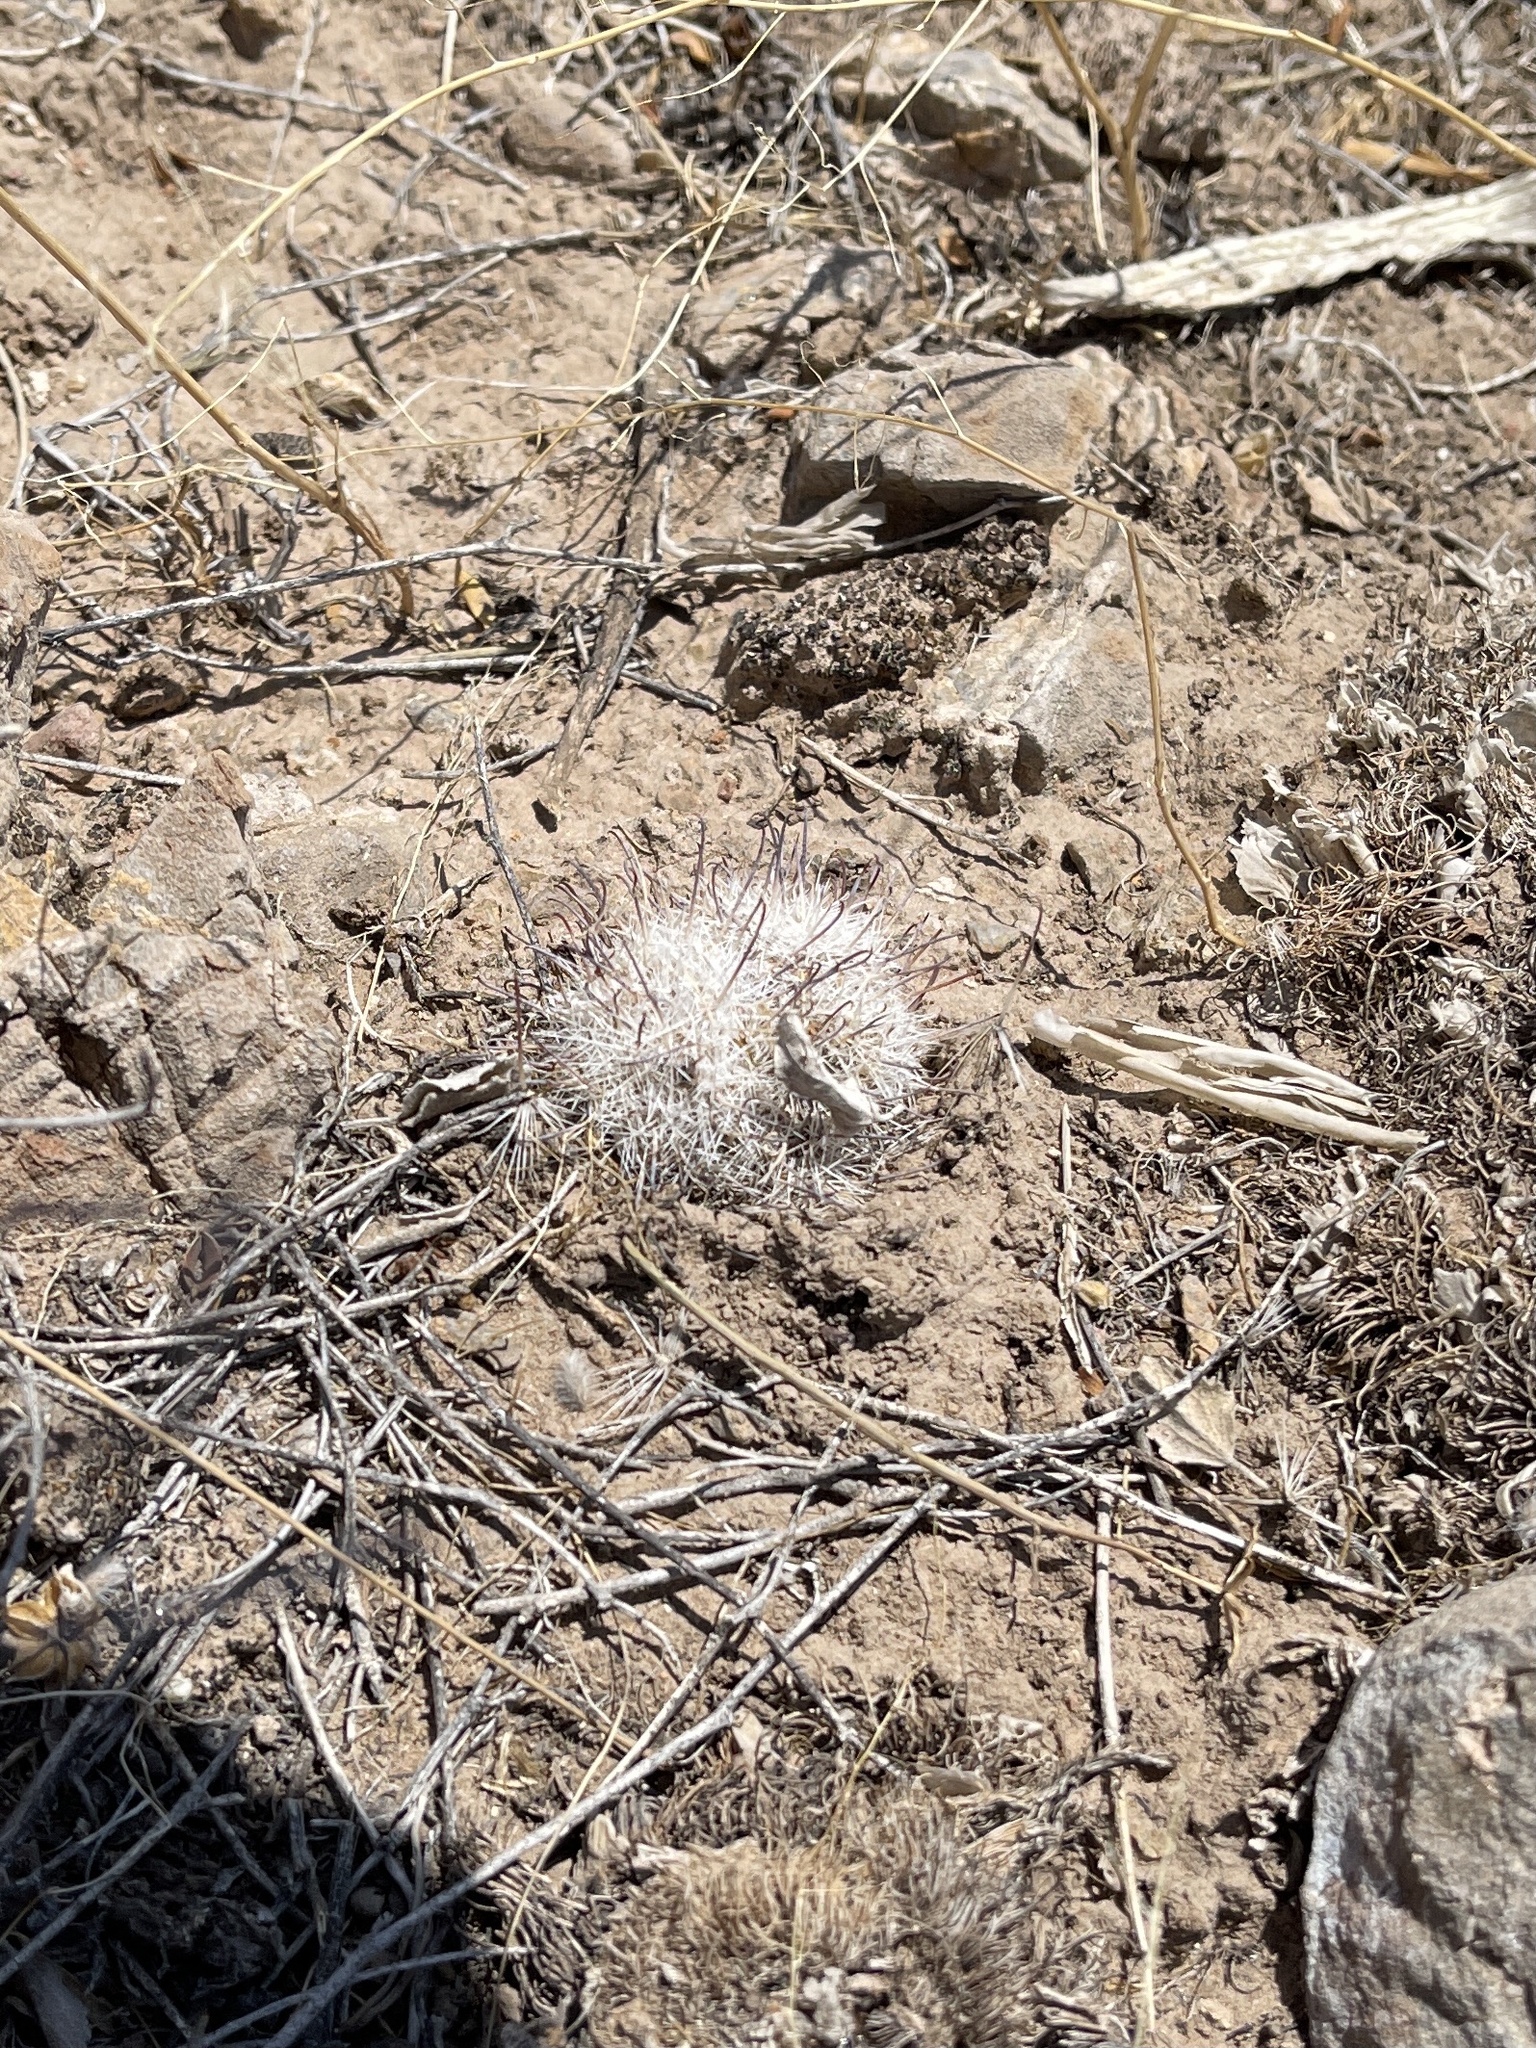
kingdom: Plantae
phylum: Tracheophyta
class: Magnoliopsida
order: Caryophyllales
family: Cactaceae
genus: Cochemiea
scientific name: Cochemiea grahamii
